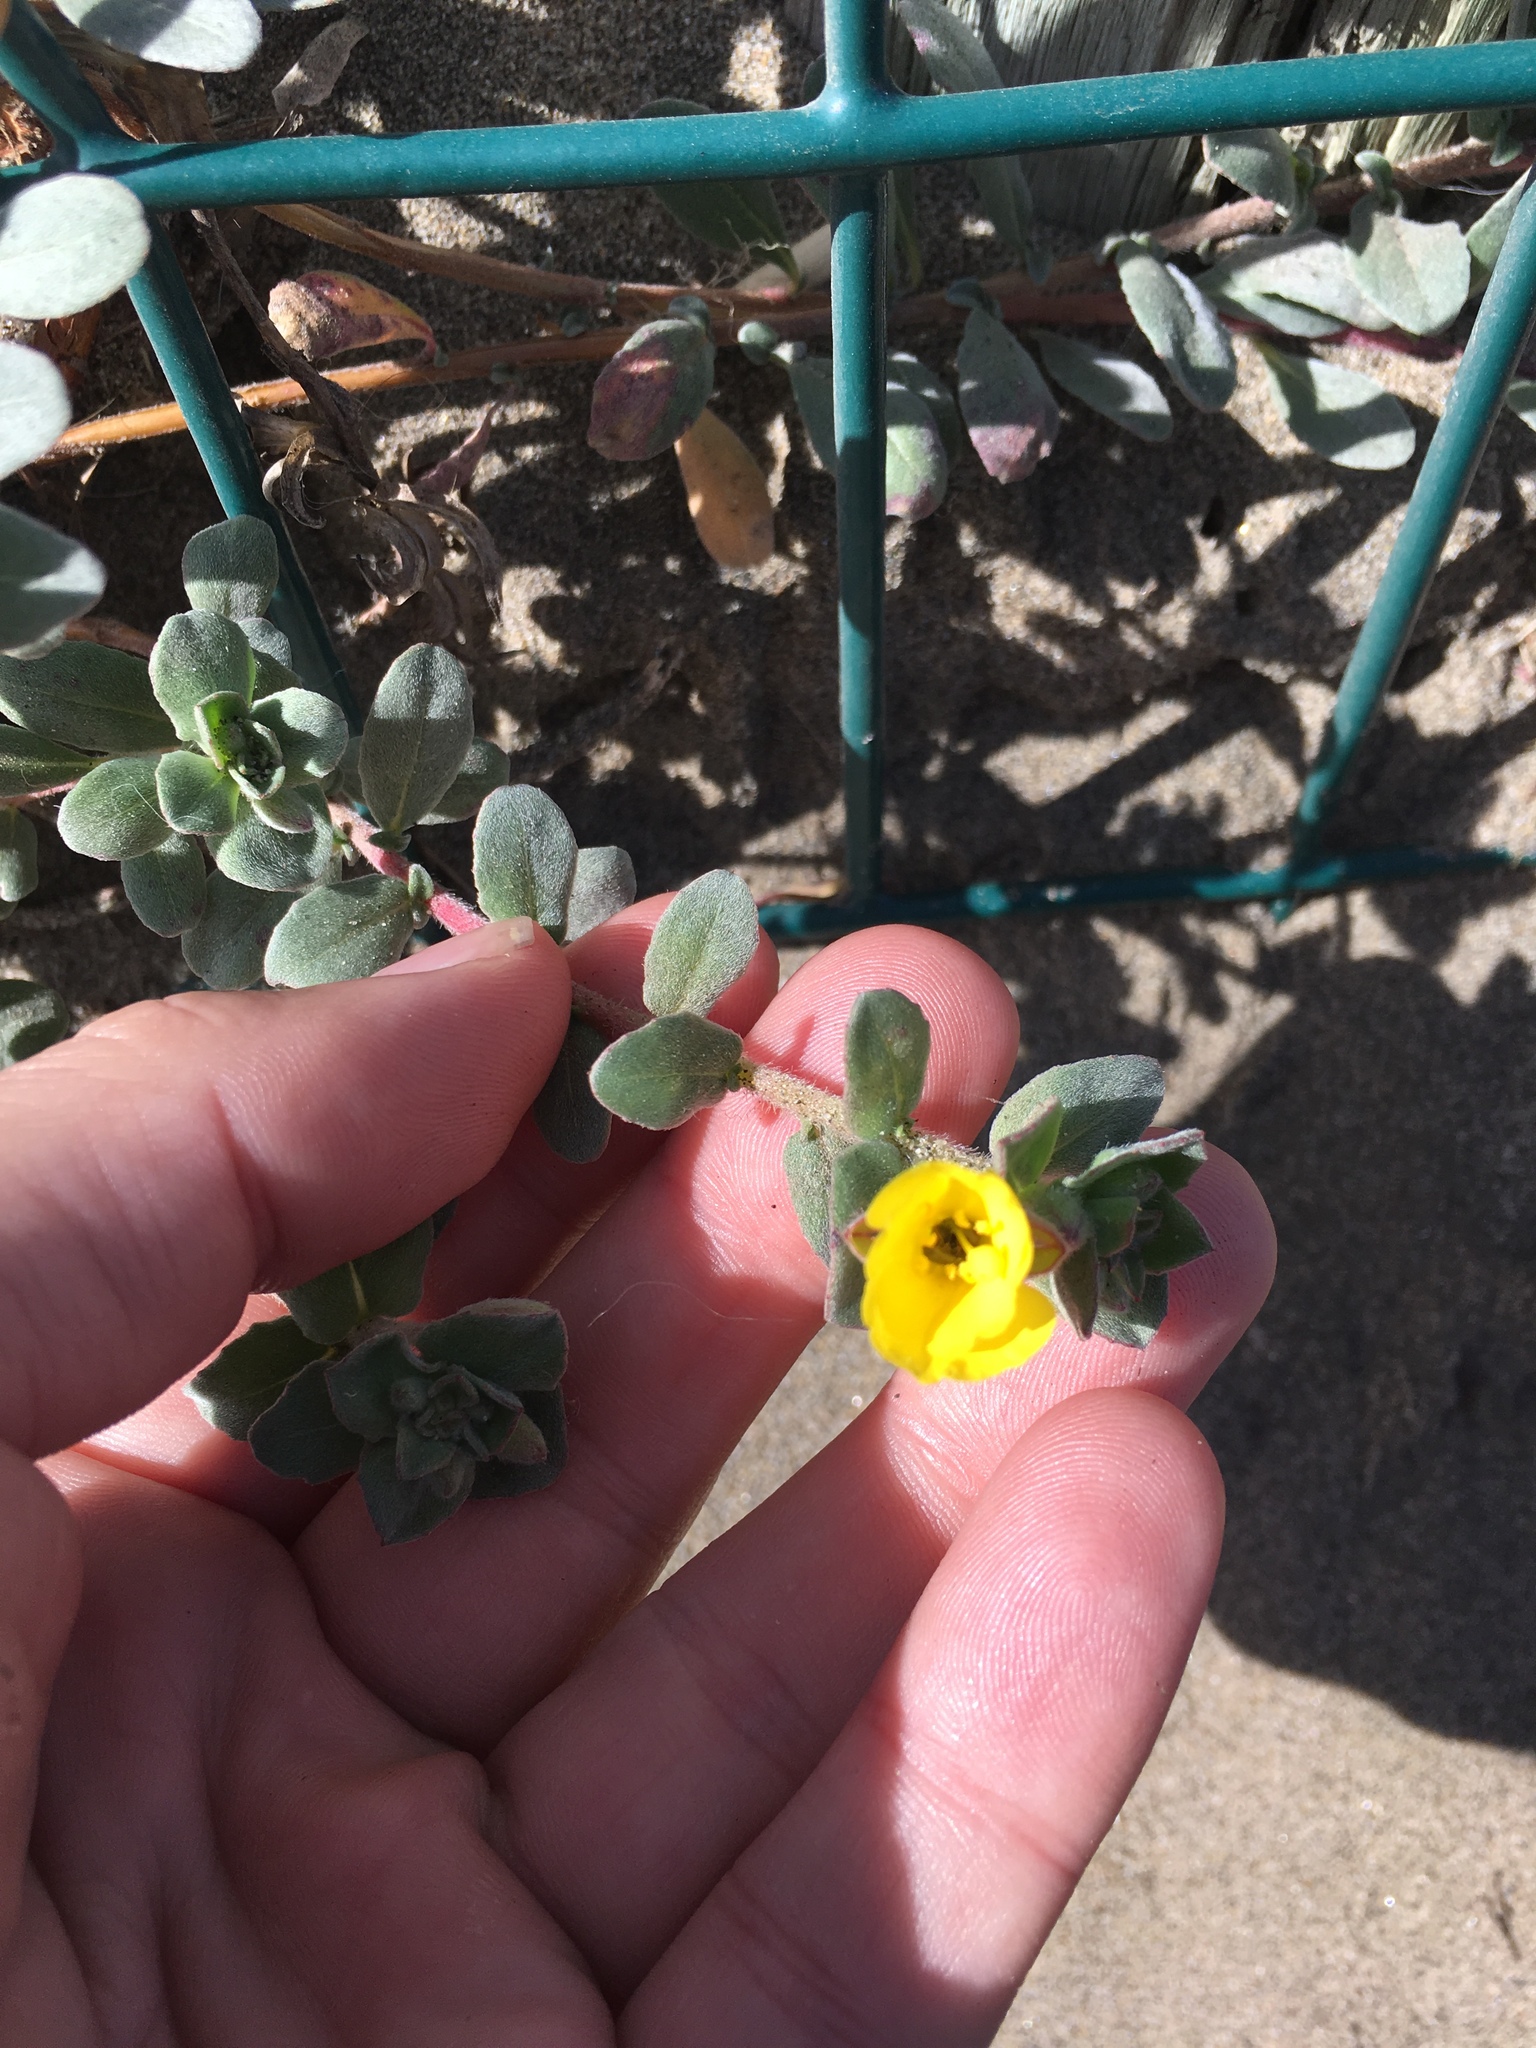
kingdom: Plantae
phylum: Tracheophyta
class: Magnoliopsida
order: Myrtales
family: Onagraceae
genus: Camissoniopsis
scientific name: Camissoniopsis cheiranthifolia
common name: Beach suncup
